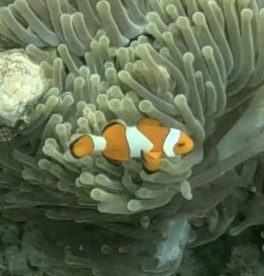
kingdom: Animalia
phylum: Chordata
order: Perciformes
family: Pomacentridae
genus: Amphiprion
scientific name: Amphiprion ocellaris
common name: Clown anemonefish
